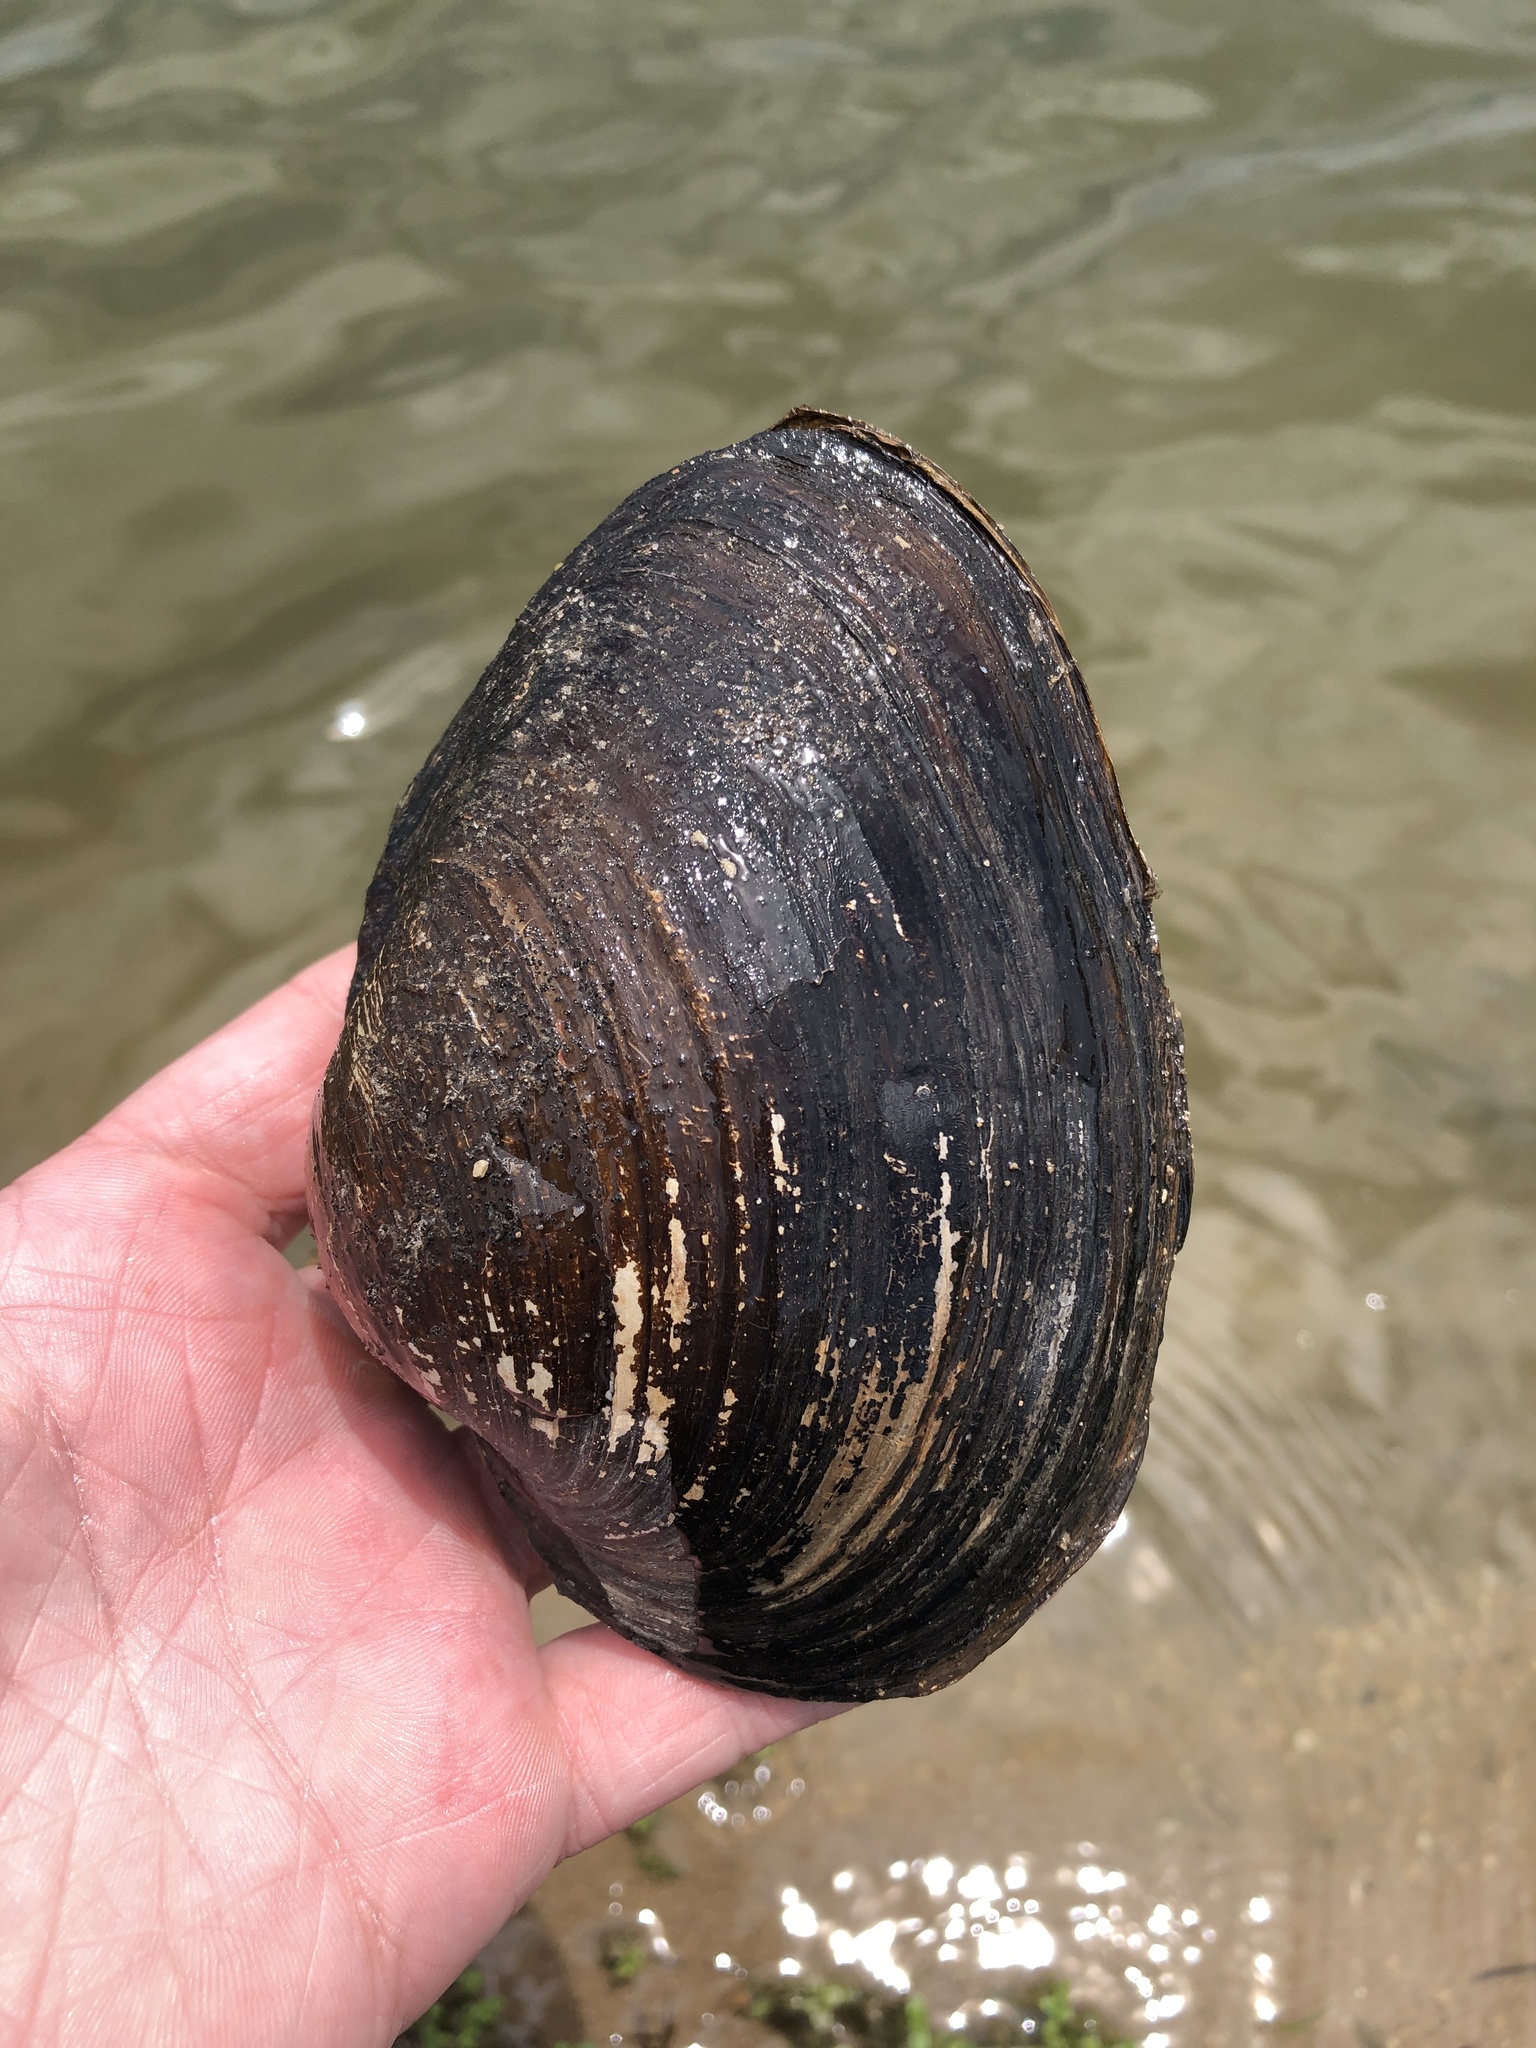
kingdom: Animalia
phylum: Mollusca
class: Bivalvia
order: Unionida
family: Unionidae
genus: Pyganodon
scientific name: Pyganodon grandis
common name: Giant floater
